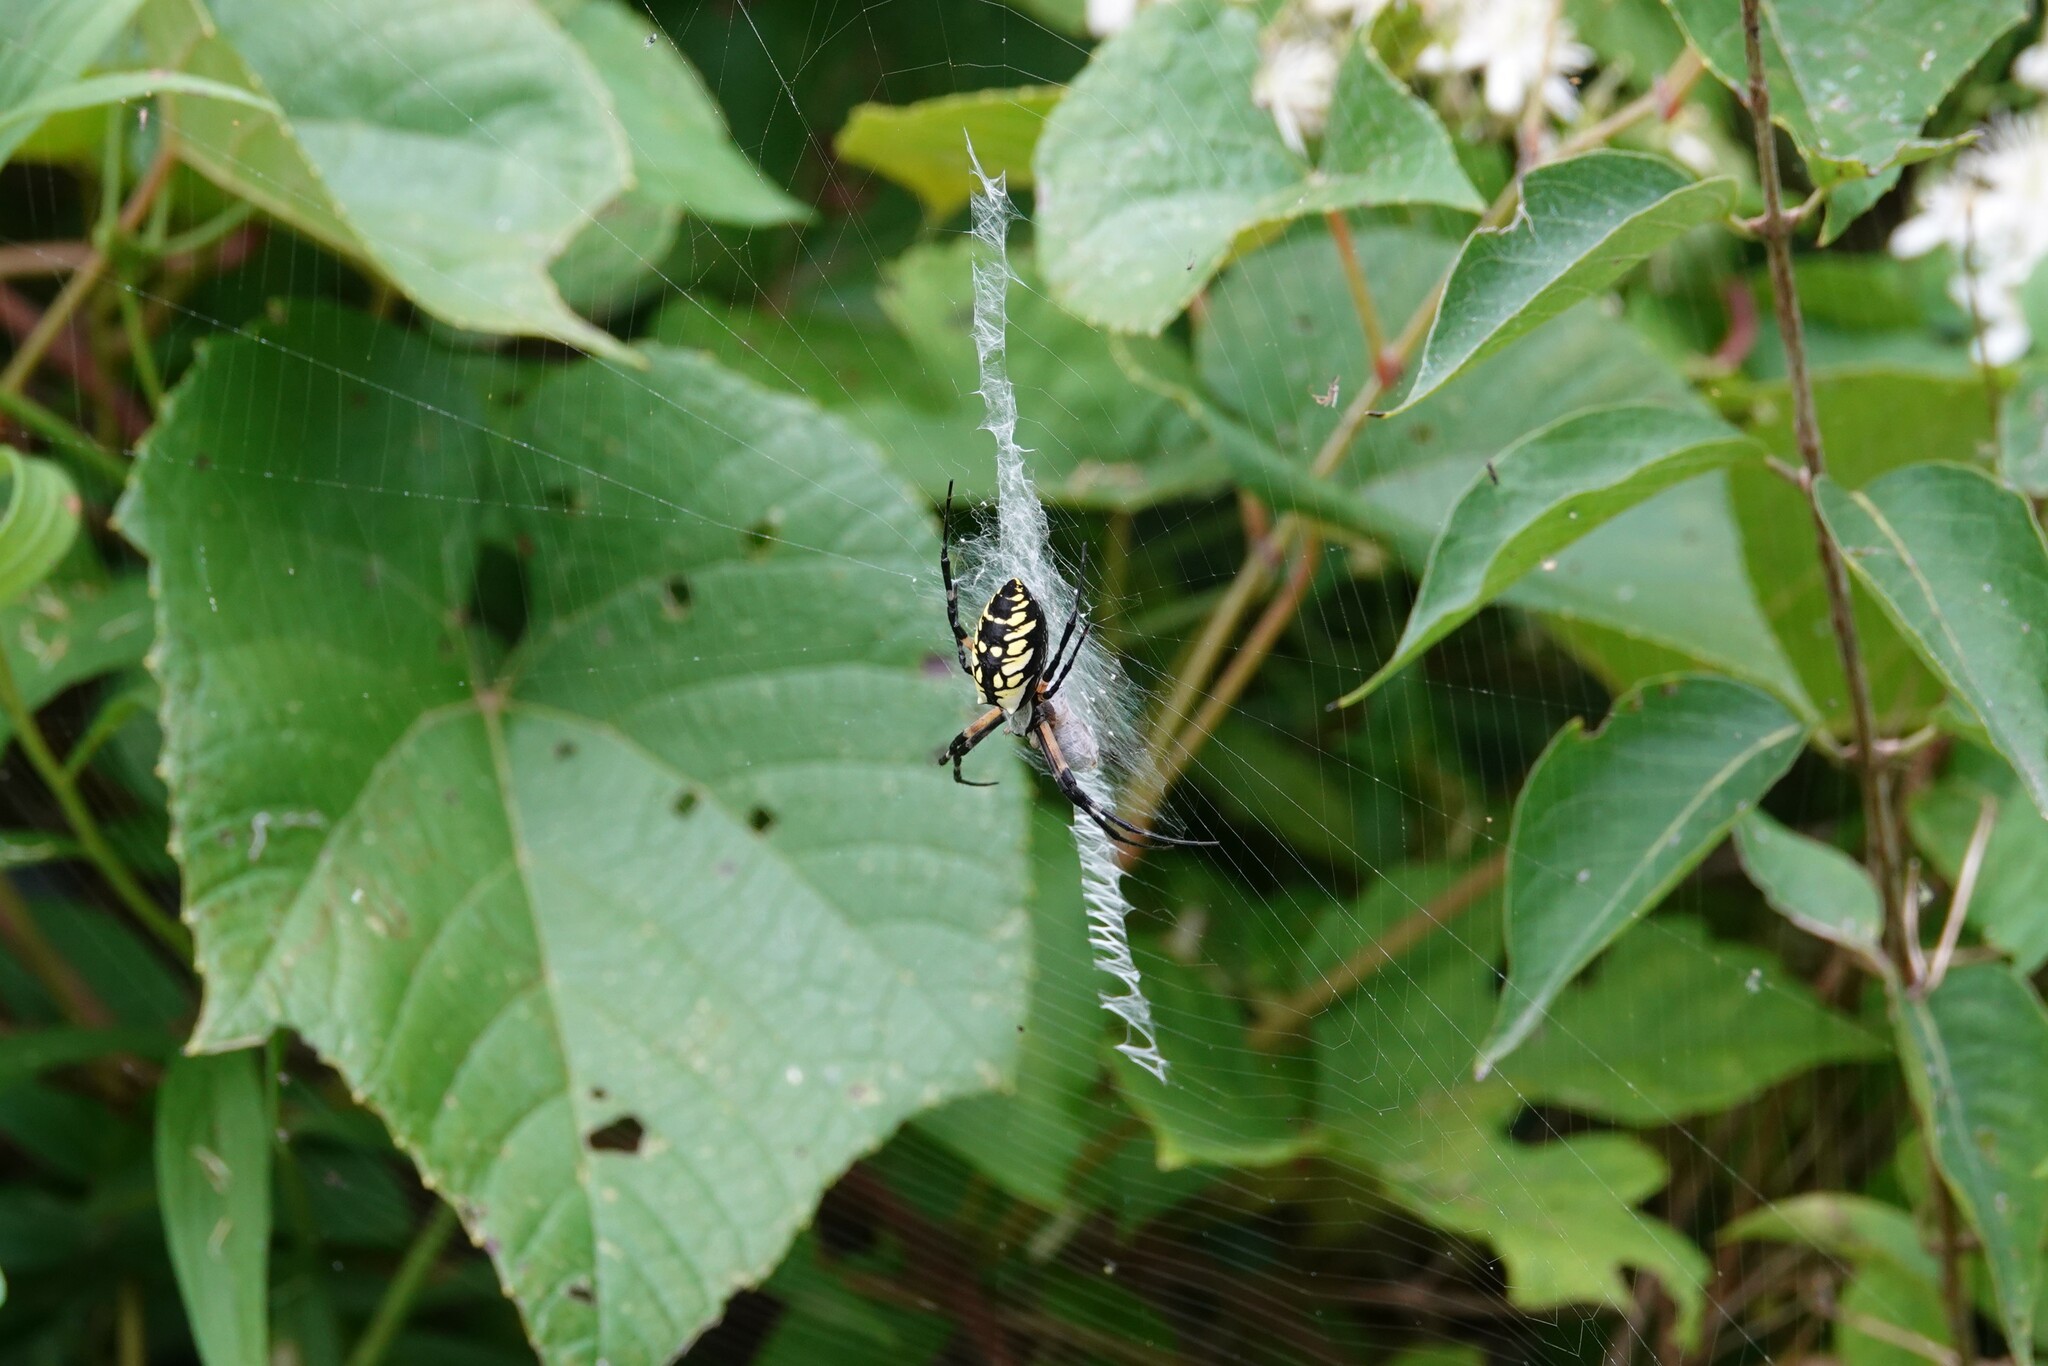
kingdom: Animalia
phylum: Arthropoda
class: Arachnida
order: Araneae
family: Araneidae
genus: Argiope
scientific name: Argiope aurantia
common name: Orb weavers
